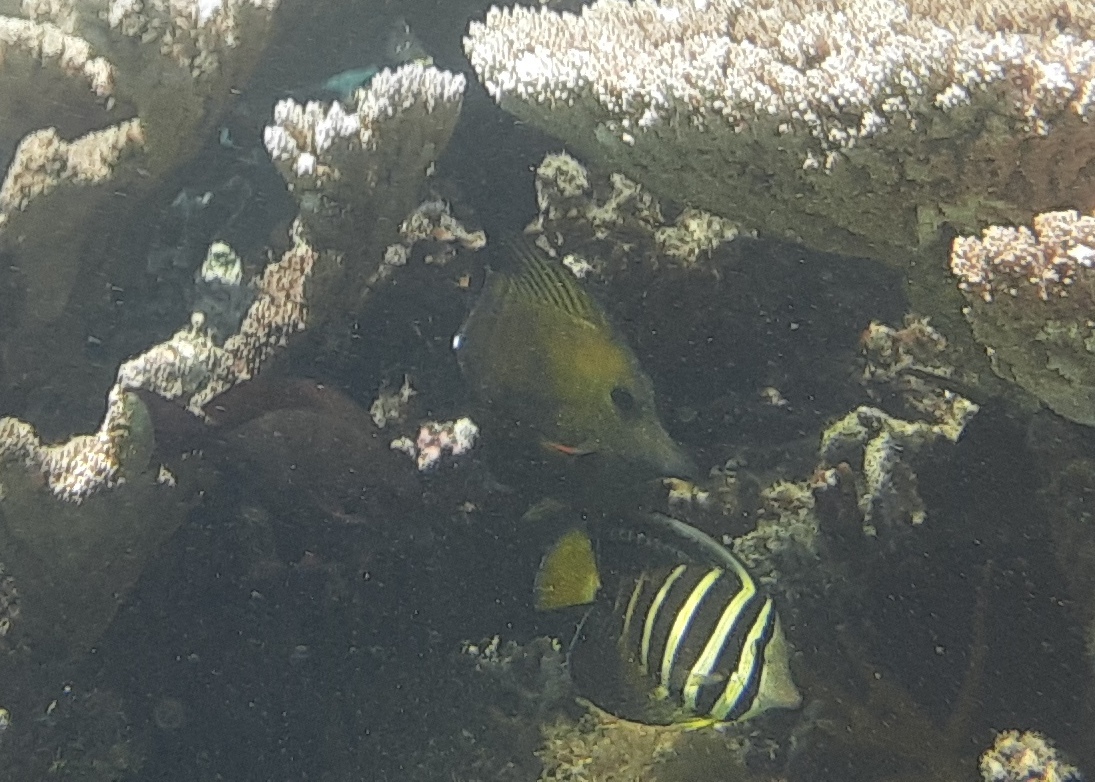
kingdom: Animalia
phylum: Chordata
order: Perciformes
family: Acanthuridae
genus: Zebrasoma
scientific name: Zebrasoma scopas
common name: Twotone tang
